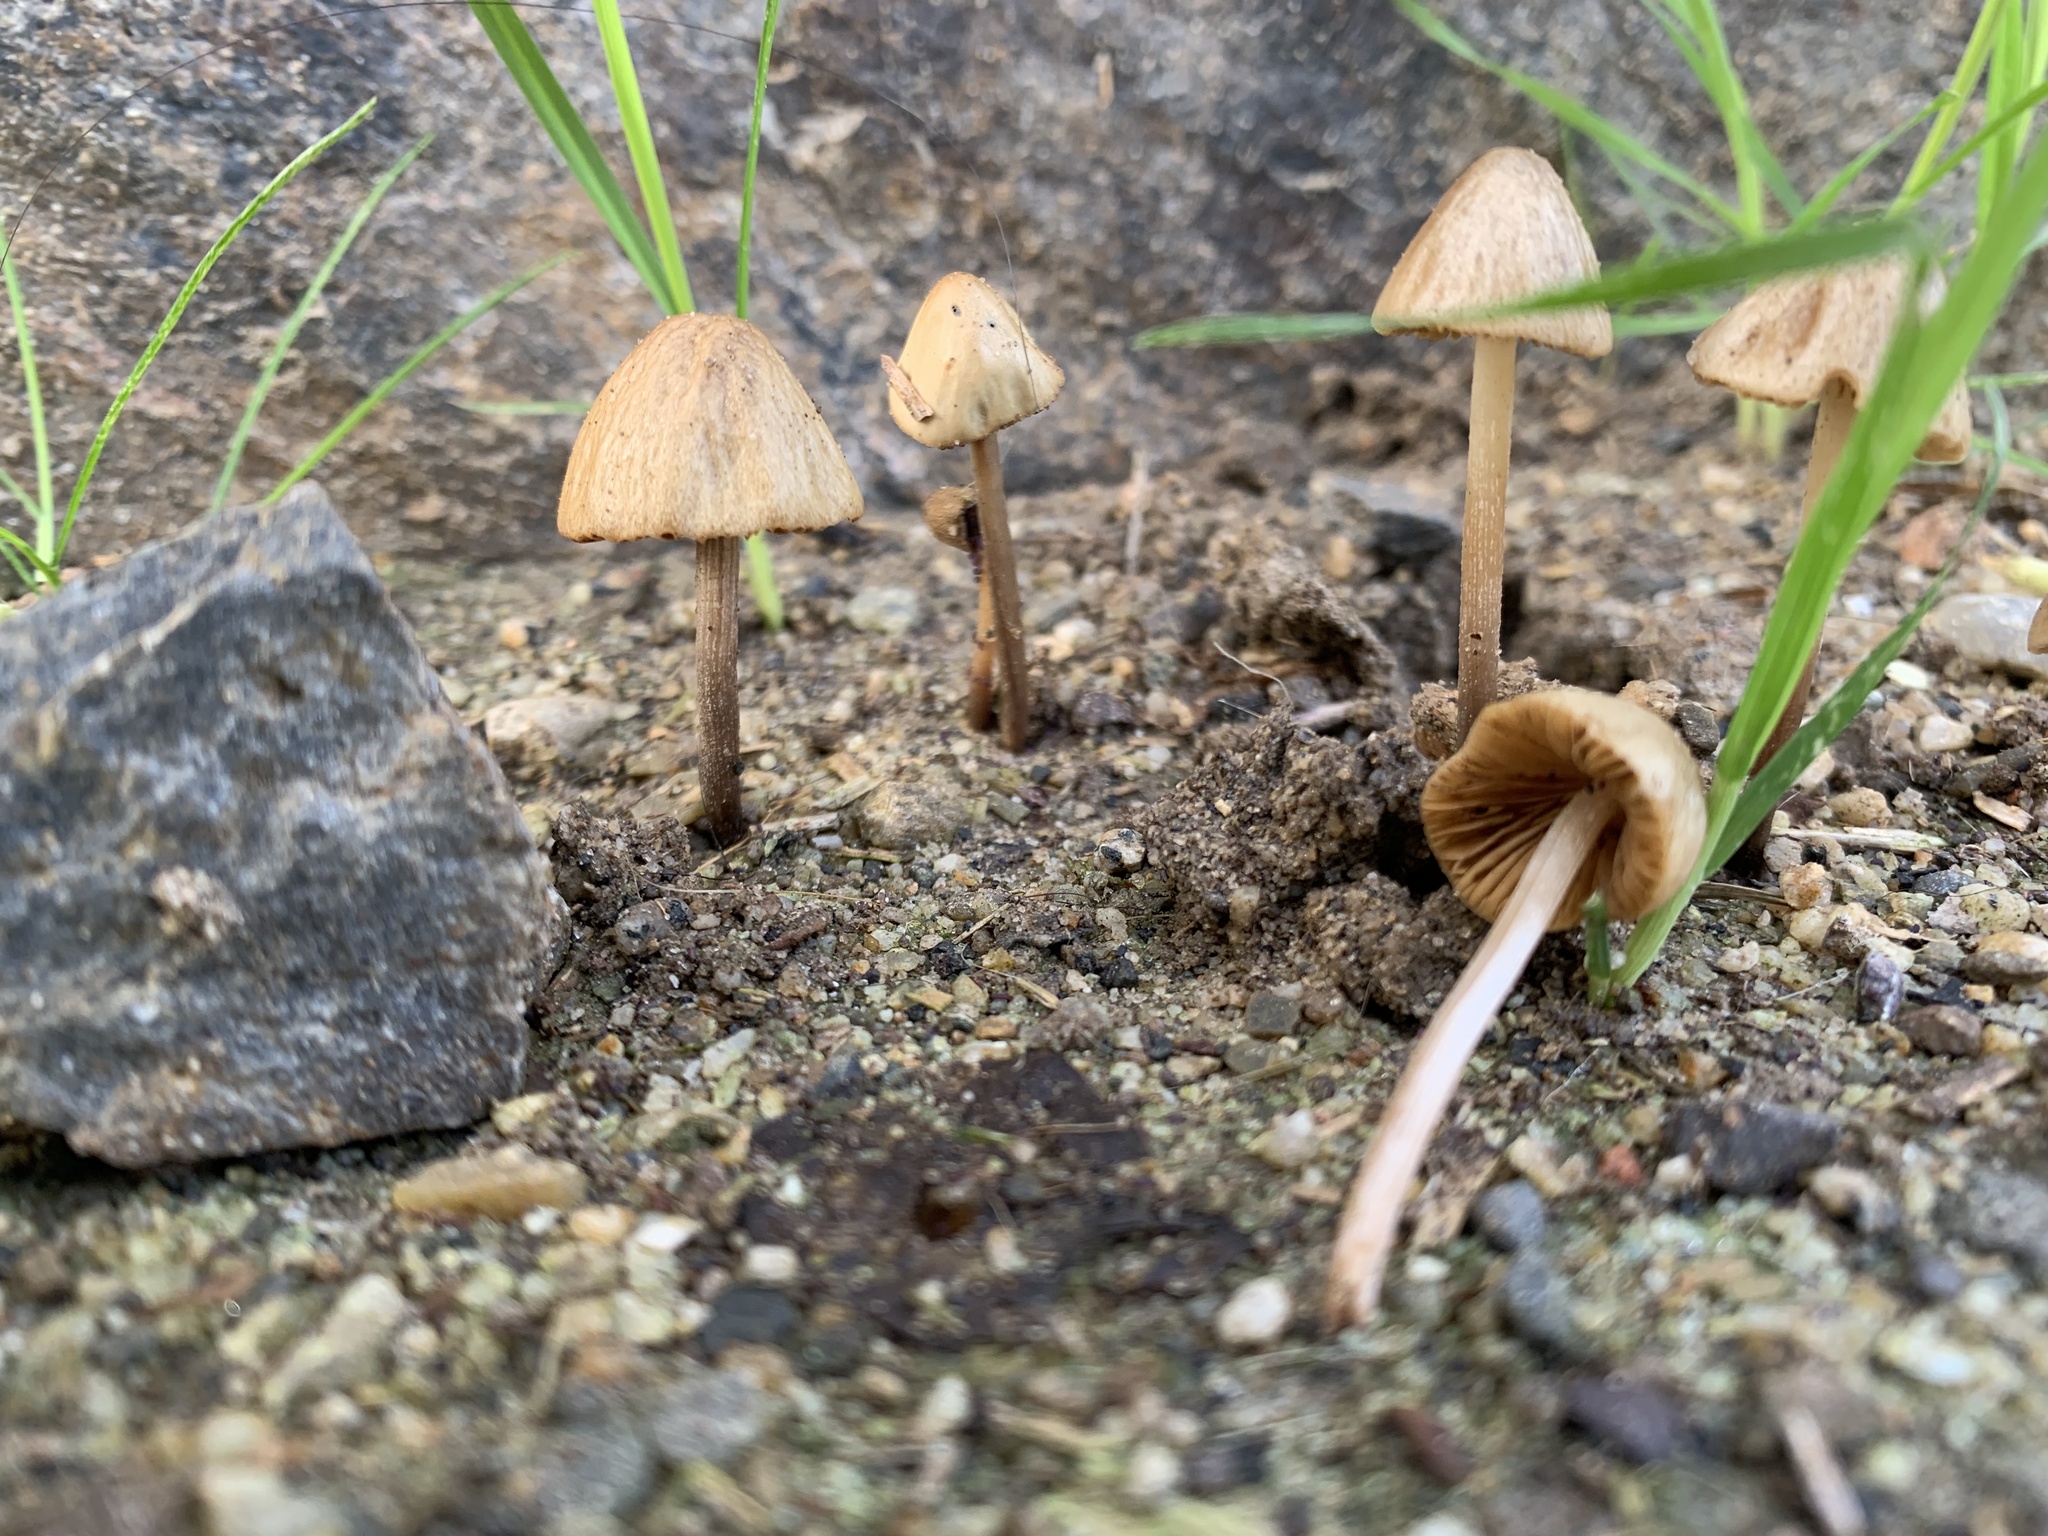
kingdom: Fungi
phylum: Basidiomycota
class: Agaricomycetes
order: Agaricales
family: Bolbitiaceae
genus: Conocybe
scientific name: Conocybe tenera
